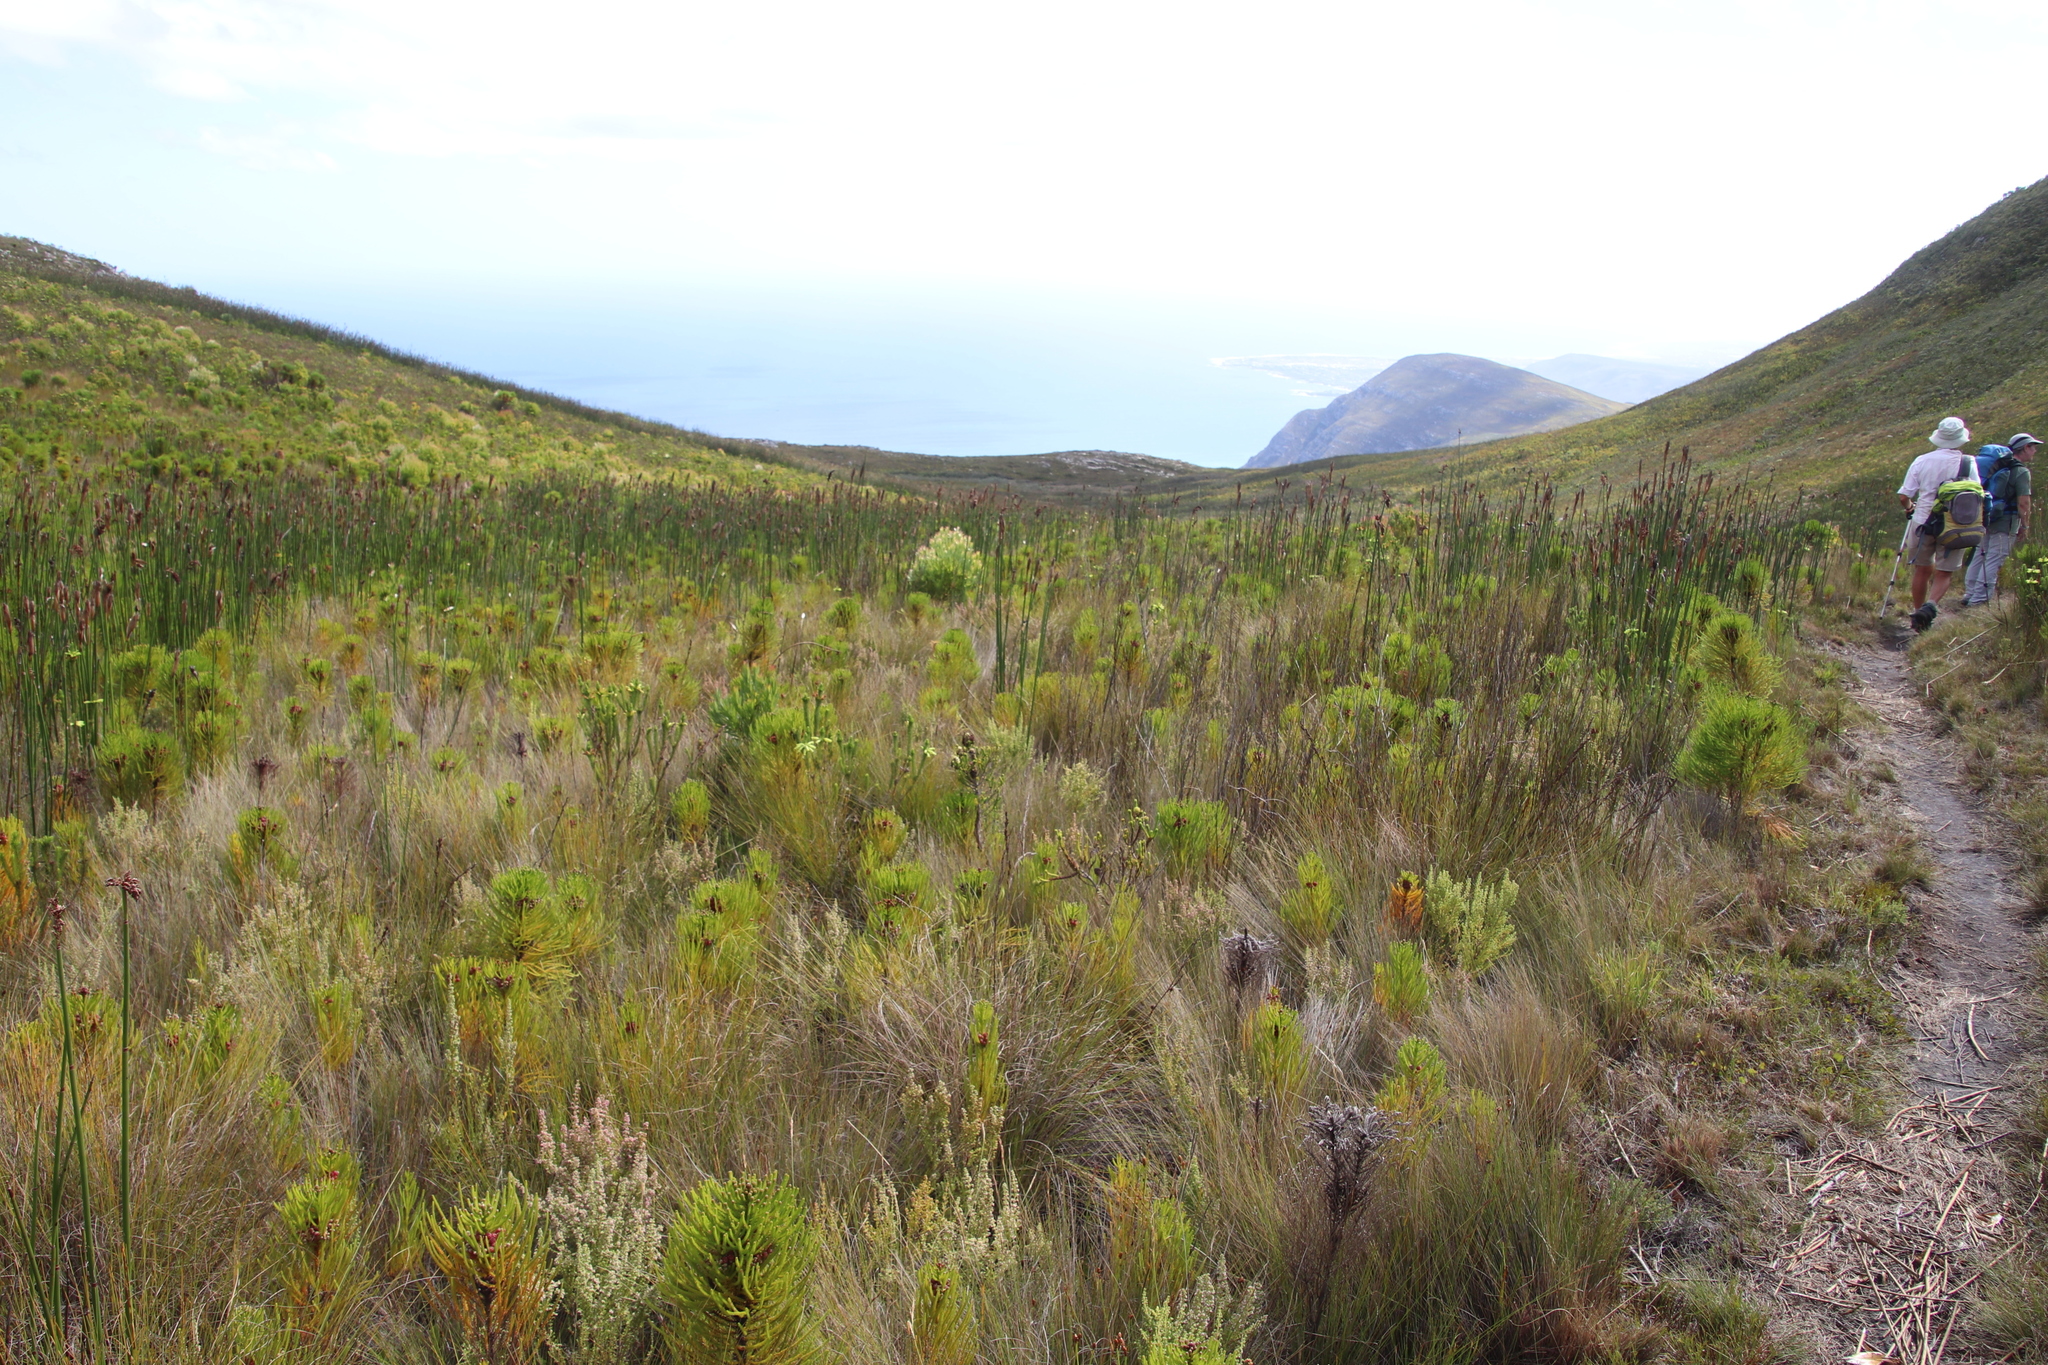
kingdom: Plantae
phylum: Tracheophyta
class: Liliopsida
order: Poales
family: Restionaceae
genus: Elegia
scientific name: Elegia mucronata
